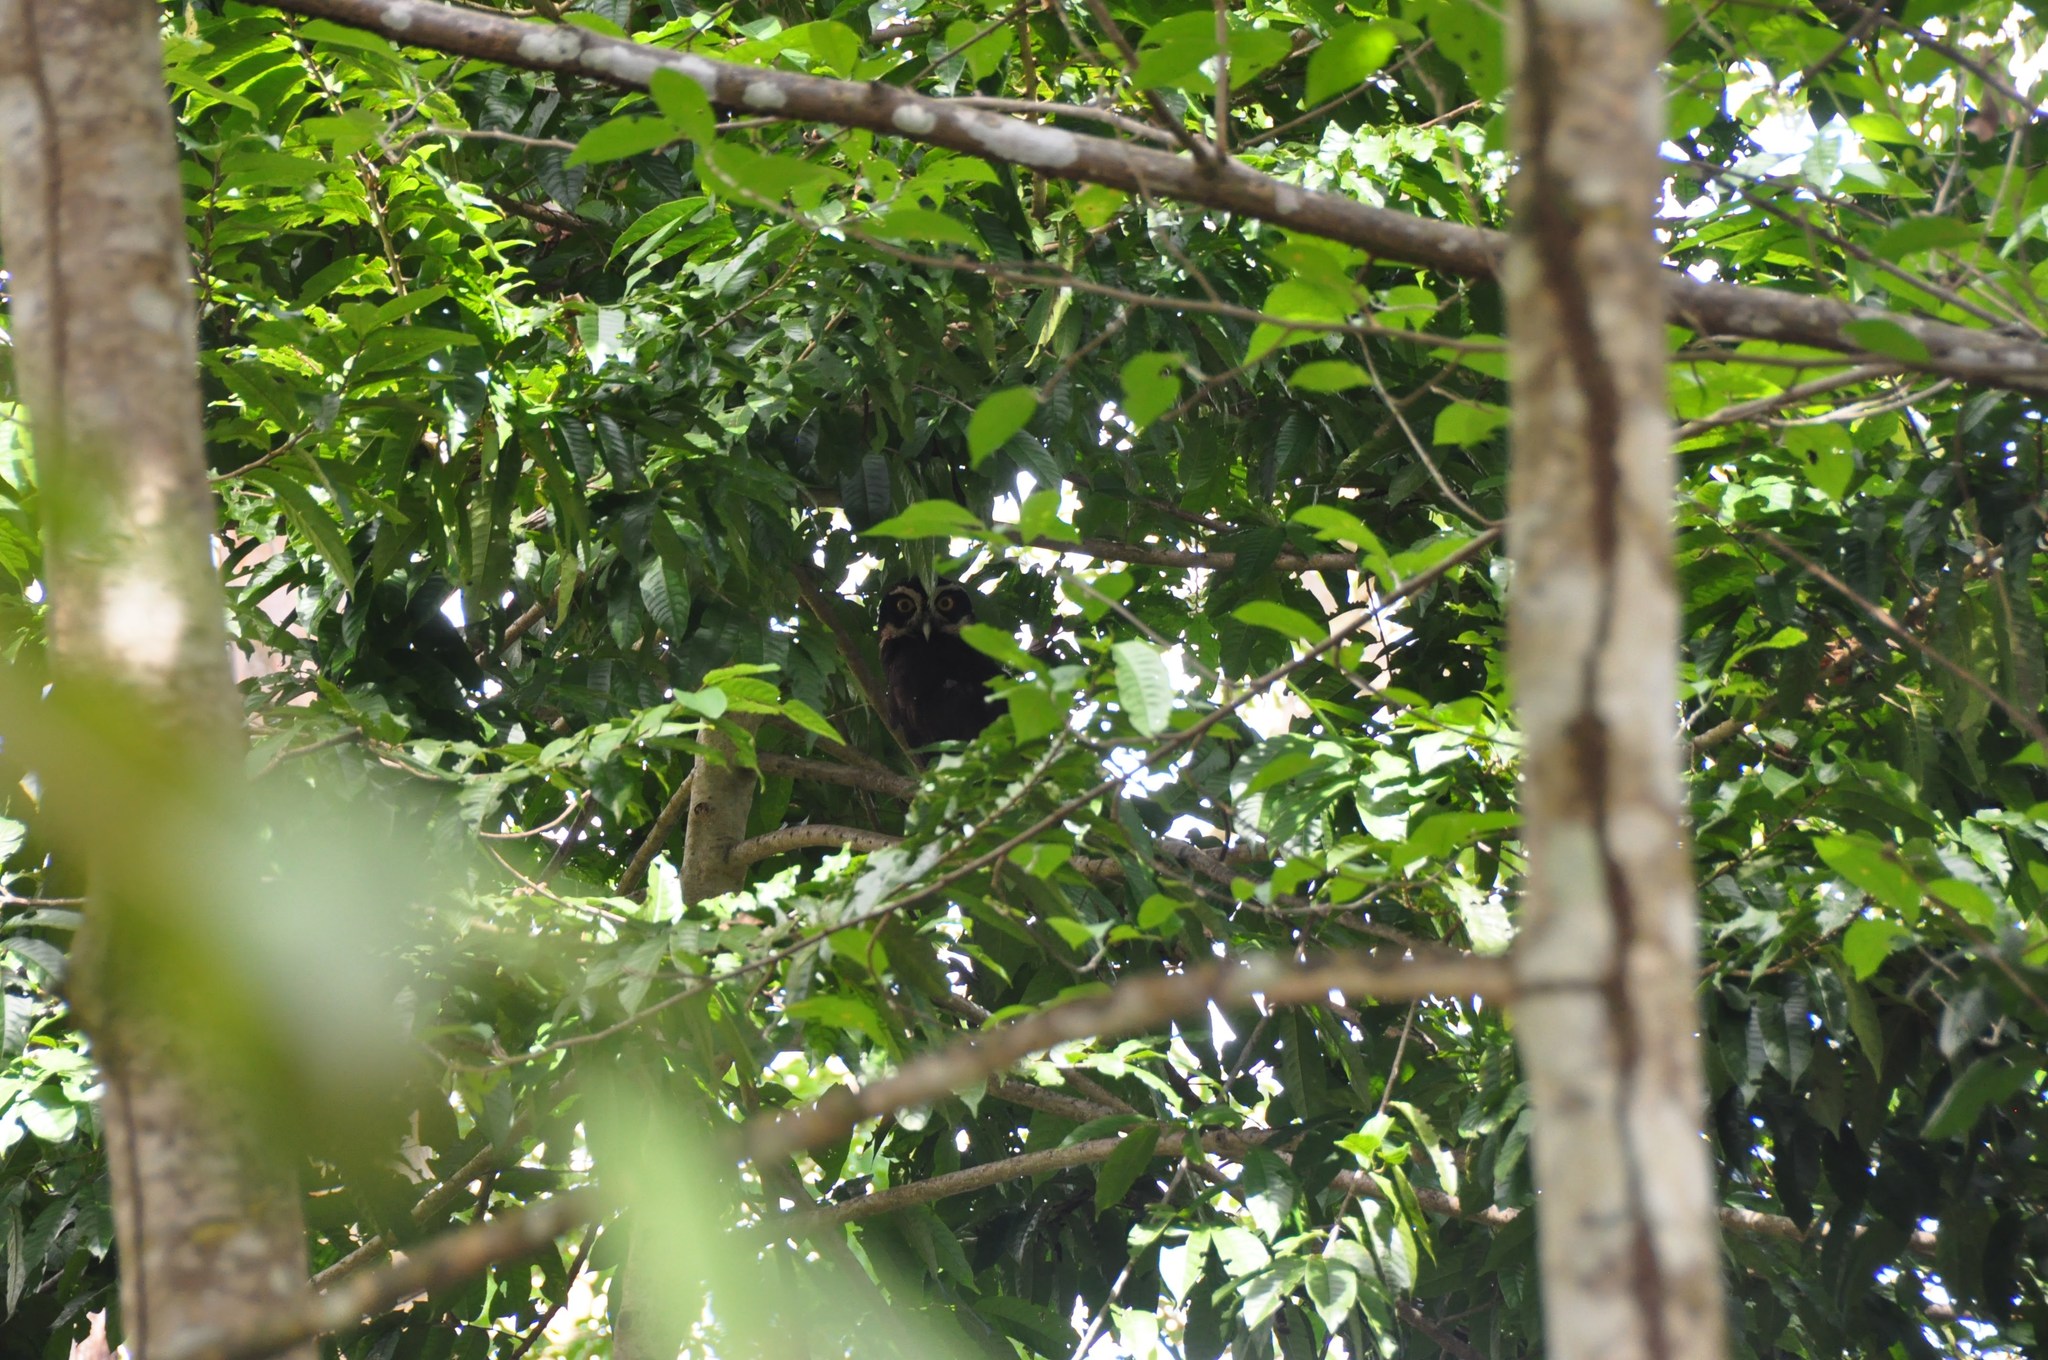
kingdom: Animalia
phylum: Chordata
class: Aves
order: Strigiformes
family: Strigidae
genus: Pulsatrix
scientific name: Pulsatrix perspicillata
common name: Spectacled owl
